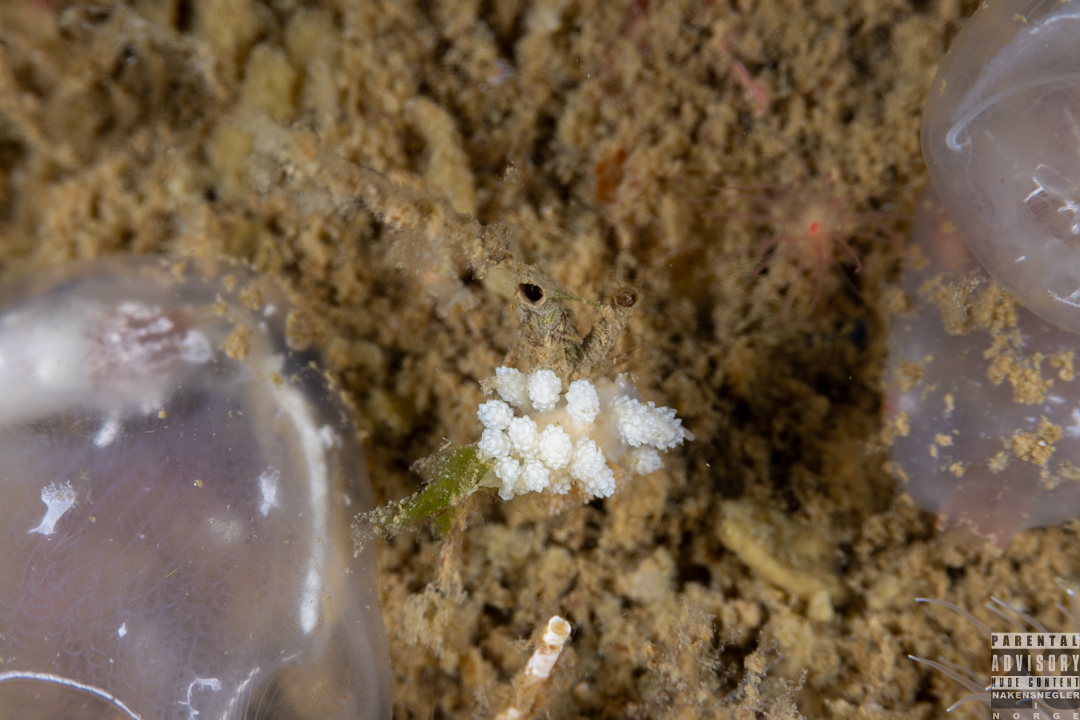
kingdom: Animalia
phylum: Mollusca
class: Gastropoda
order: Nudibranchia
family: Dotidae
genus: Doto
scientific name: Doto fragilis
